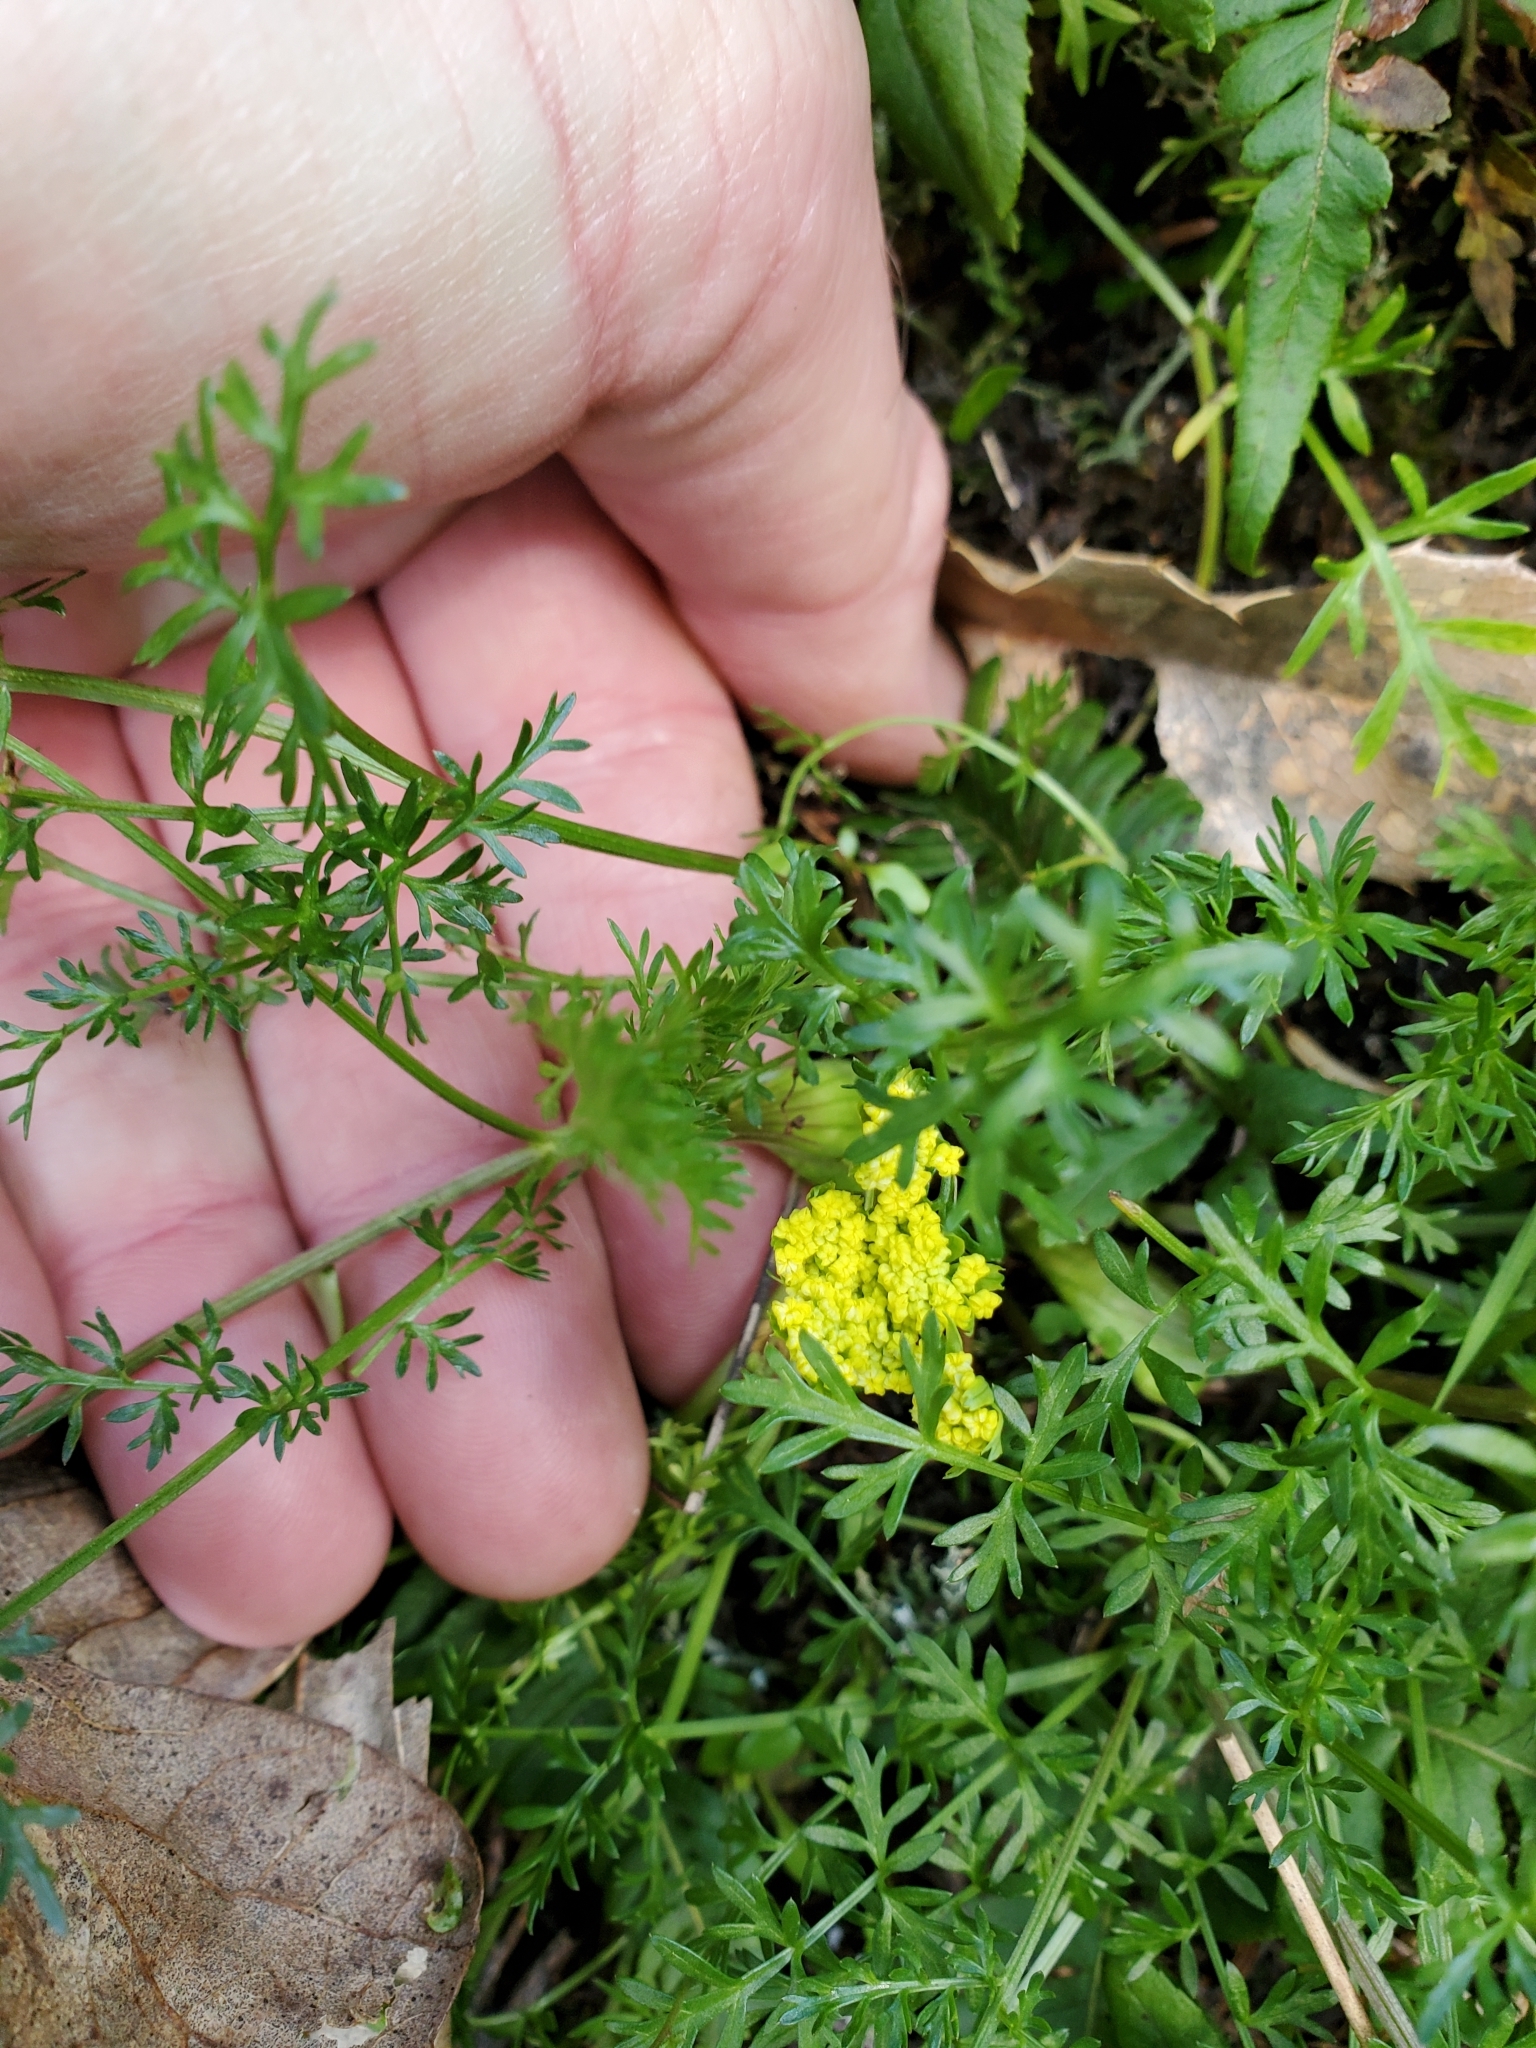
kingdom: Plantae
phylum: Tracheophyta
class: Magnoliopsida
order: Apiales
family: Apiaceae
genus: Lomatium
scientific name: Lomatium utriculatum
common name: Fine-leaf desert-parsley
